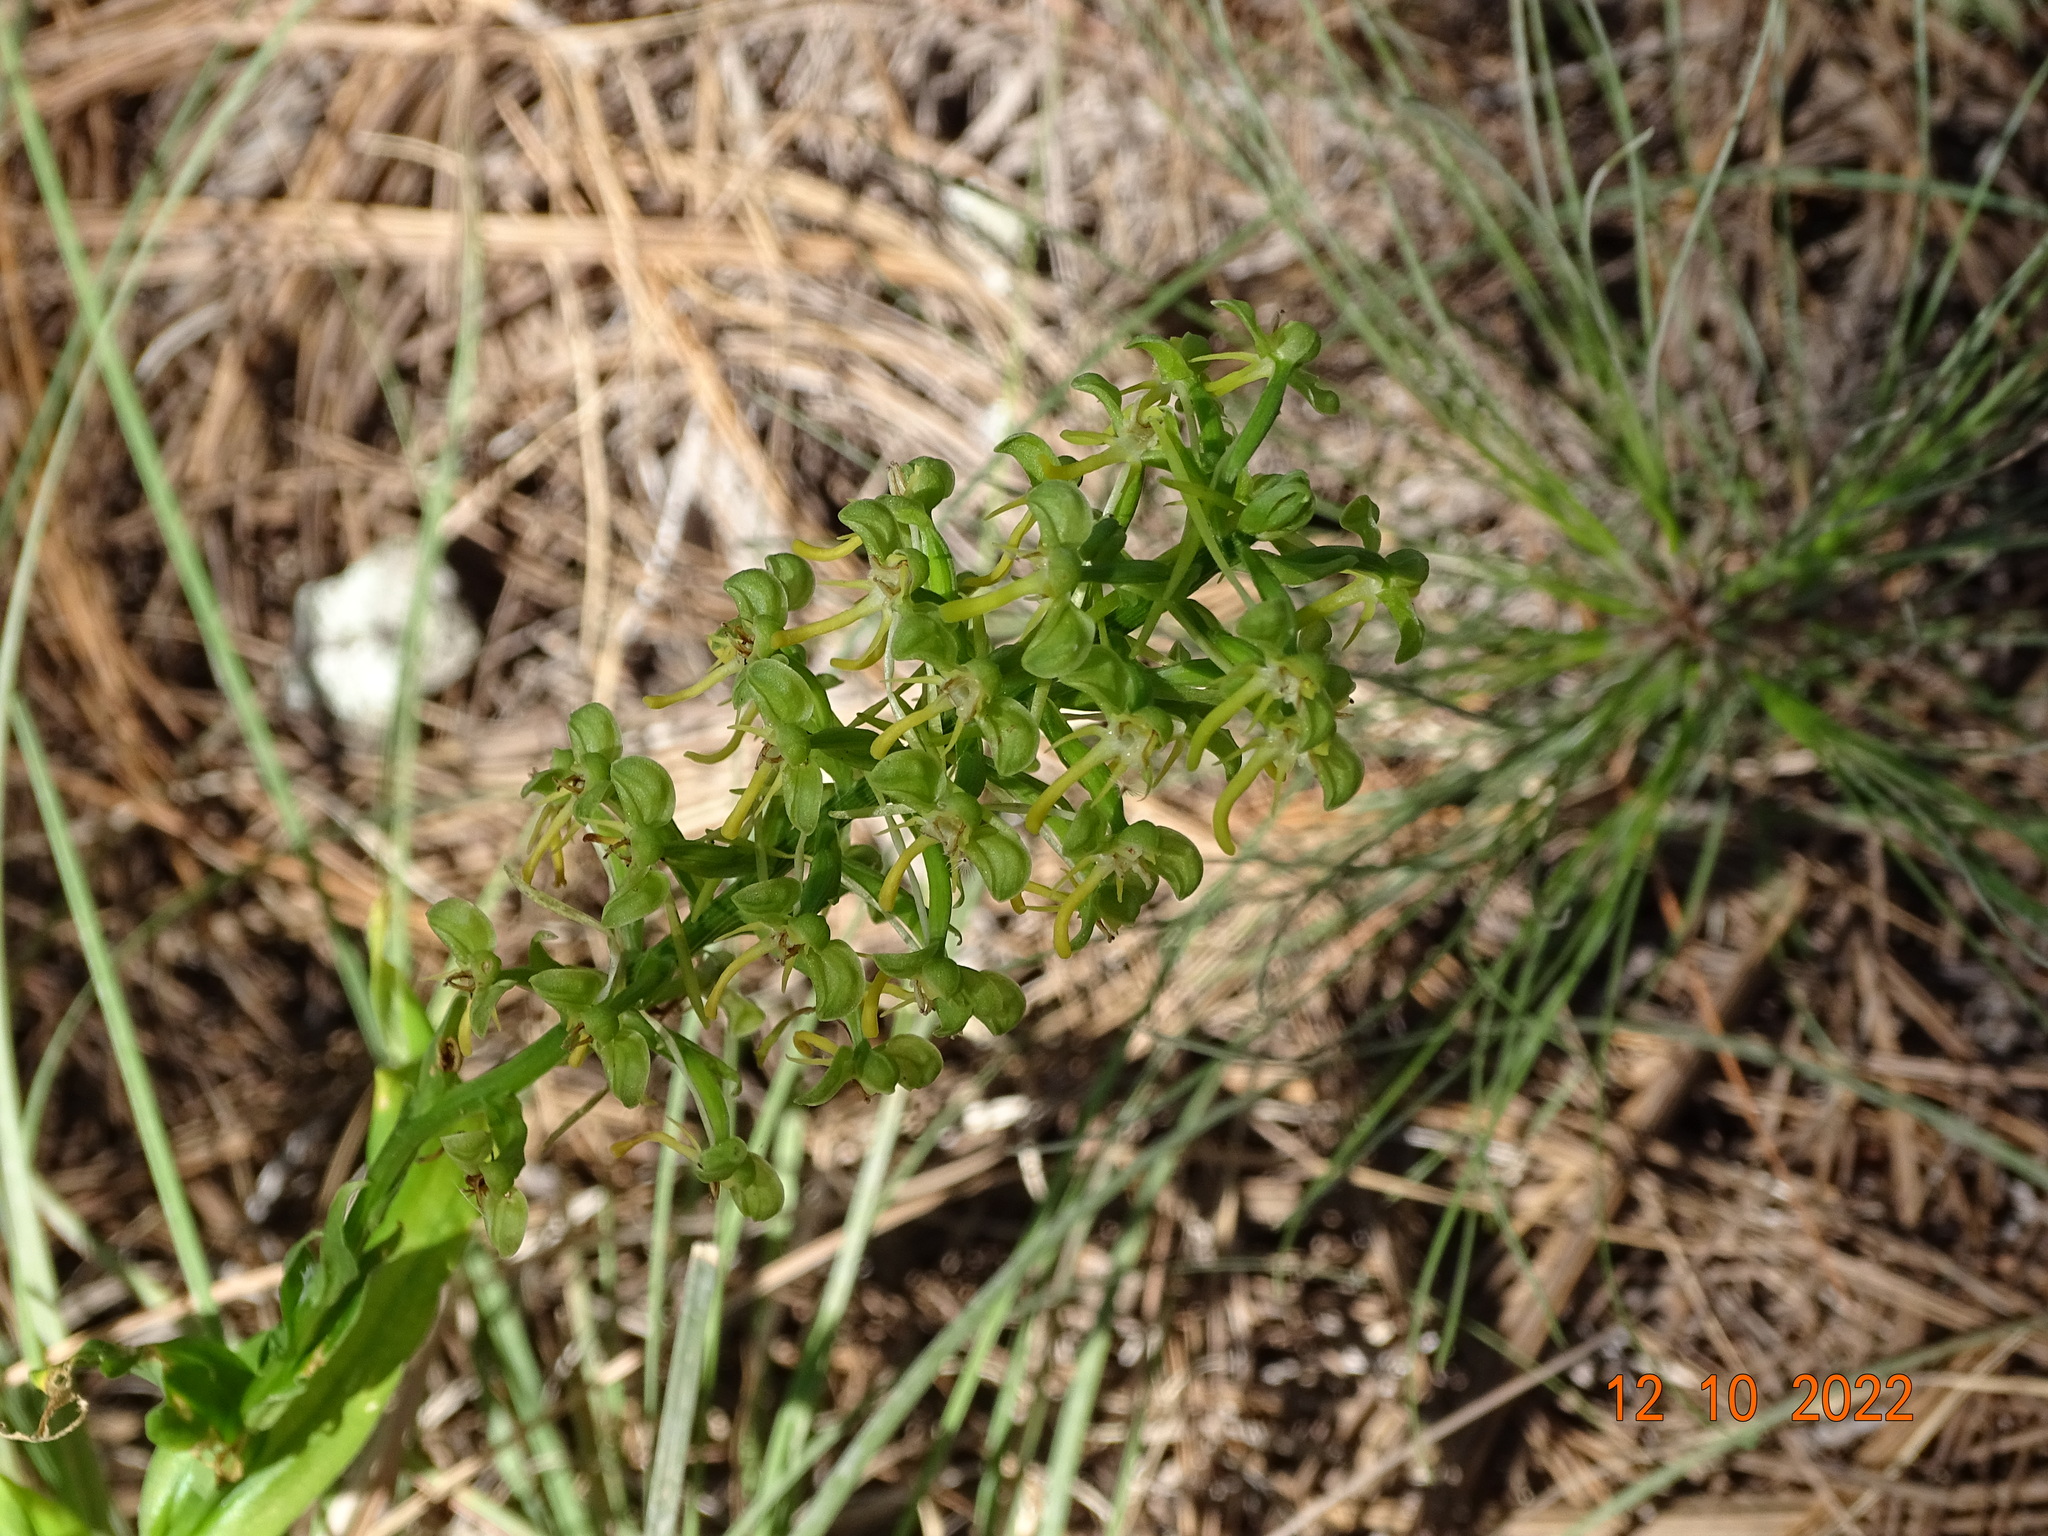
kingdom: Plantae
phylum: Tracheophyta
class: Liliopsida
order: Asparagales
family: Orchidaceae
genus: Habenaria
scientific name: Habenaria luzmariana
